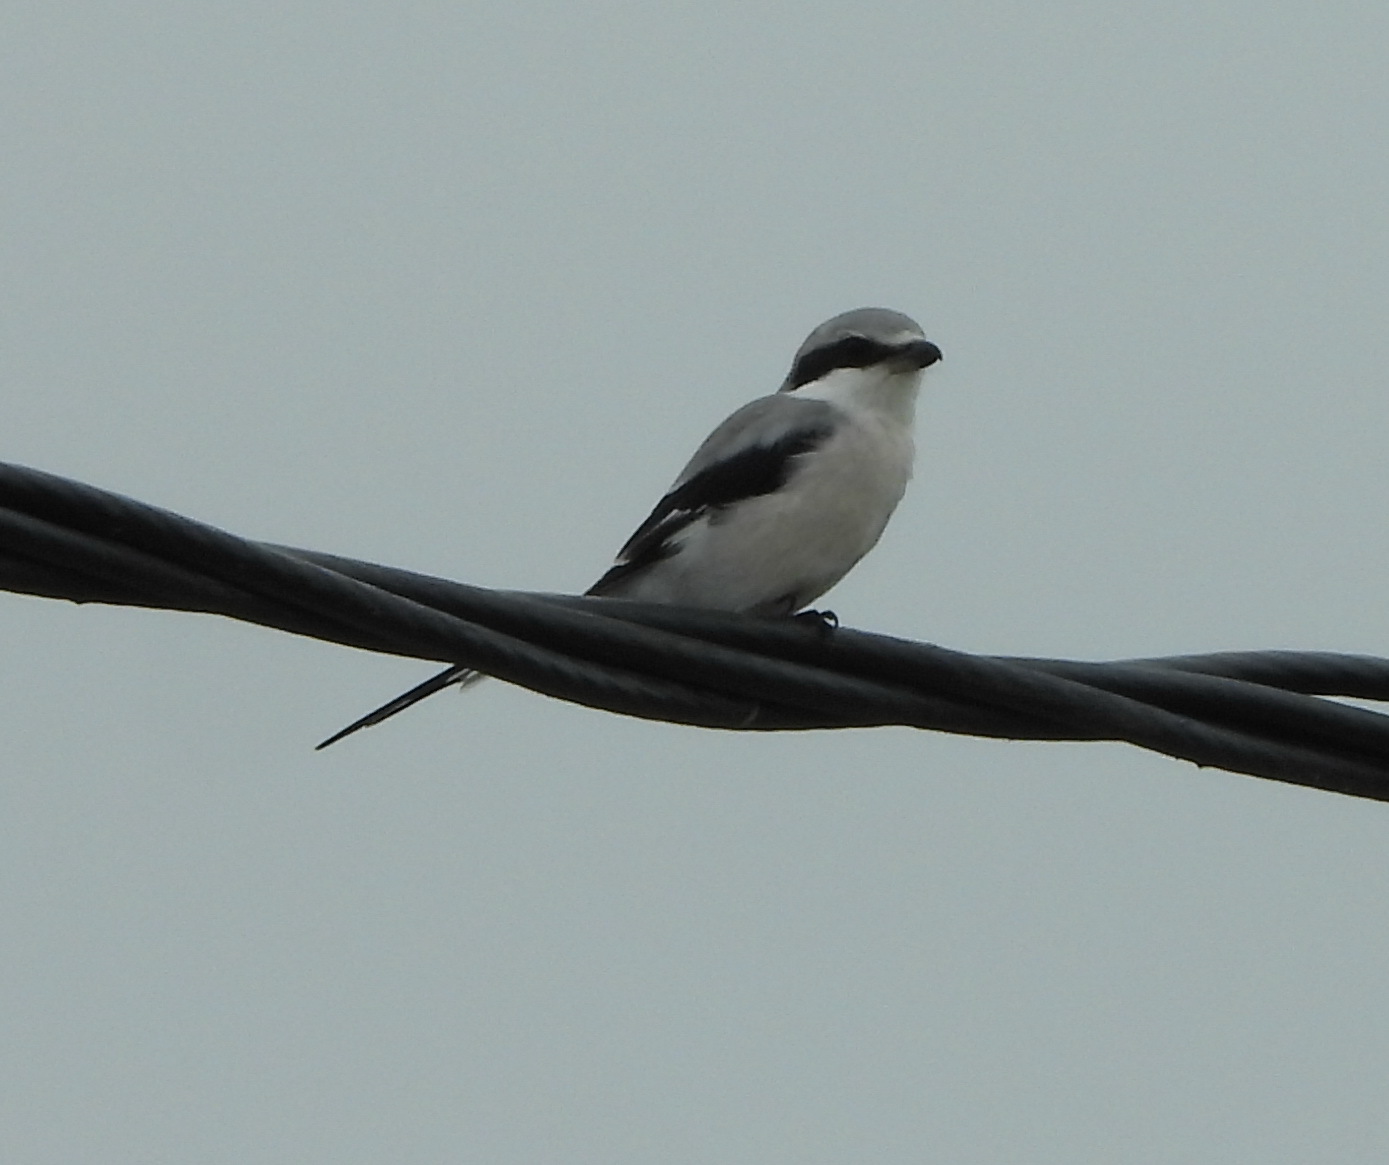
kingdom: Animalia
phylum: Chordata
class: Aves
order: Passeriformes
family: Laniidae
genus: Lanius
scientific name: Lanius sphenocercus
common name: Chinese grey shrike
